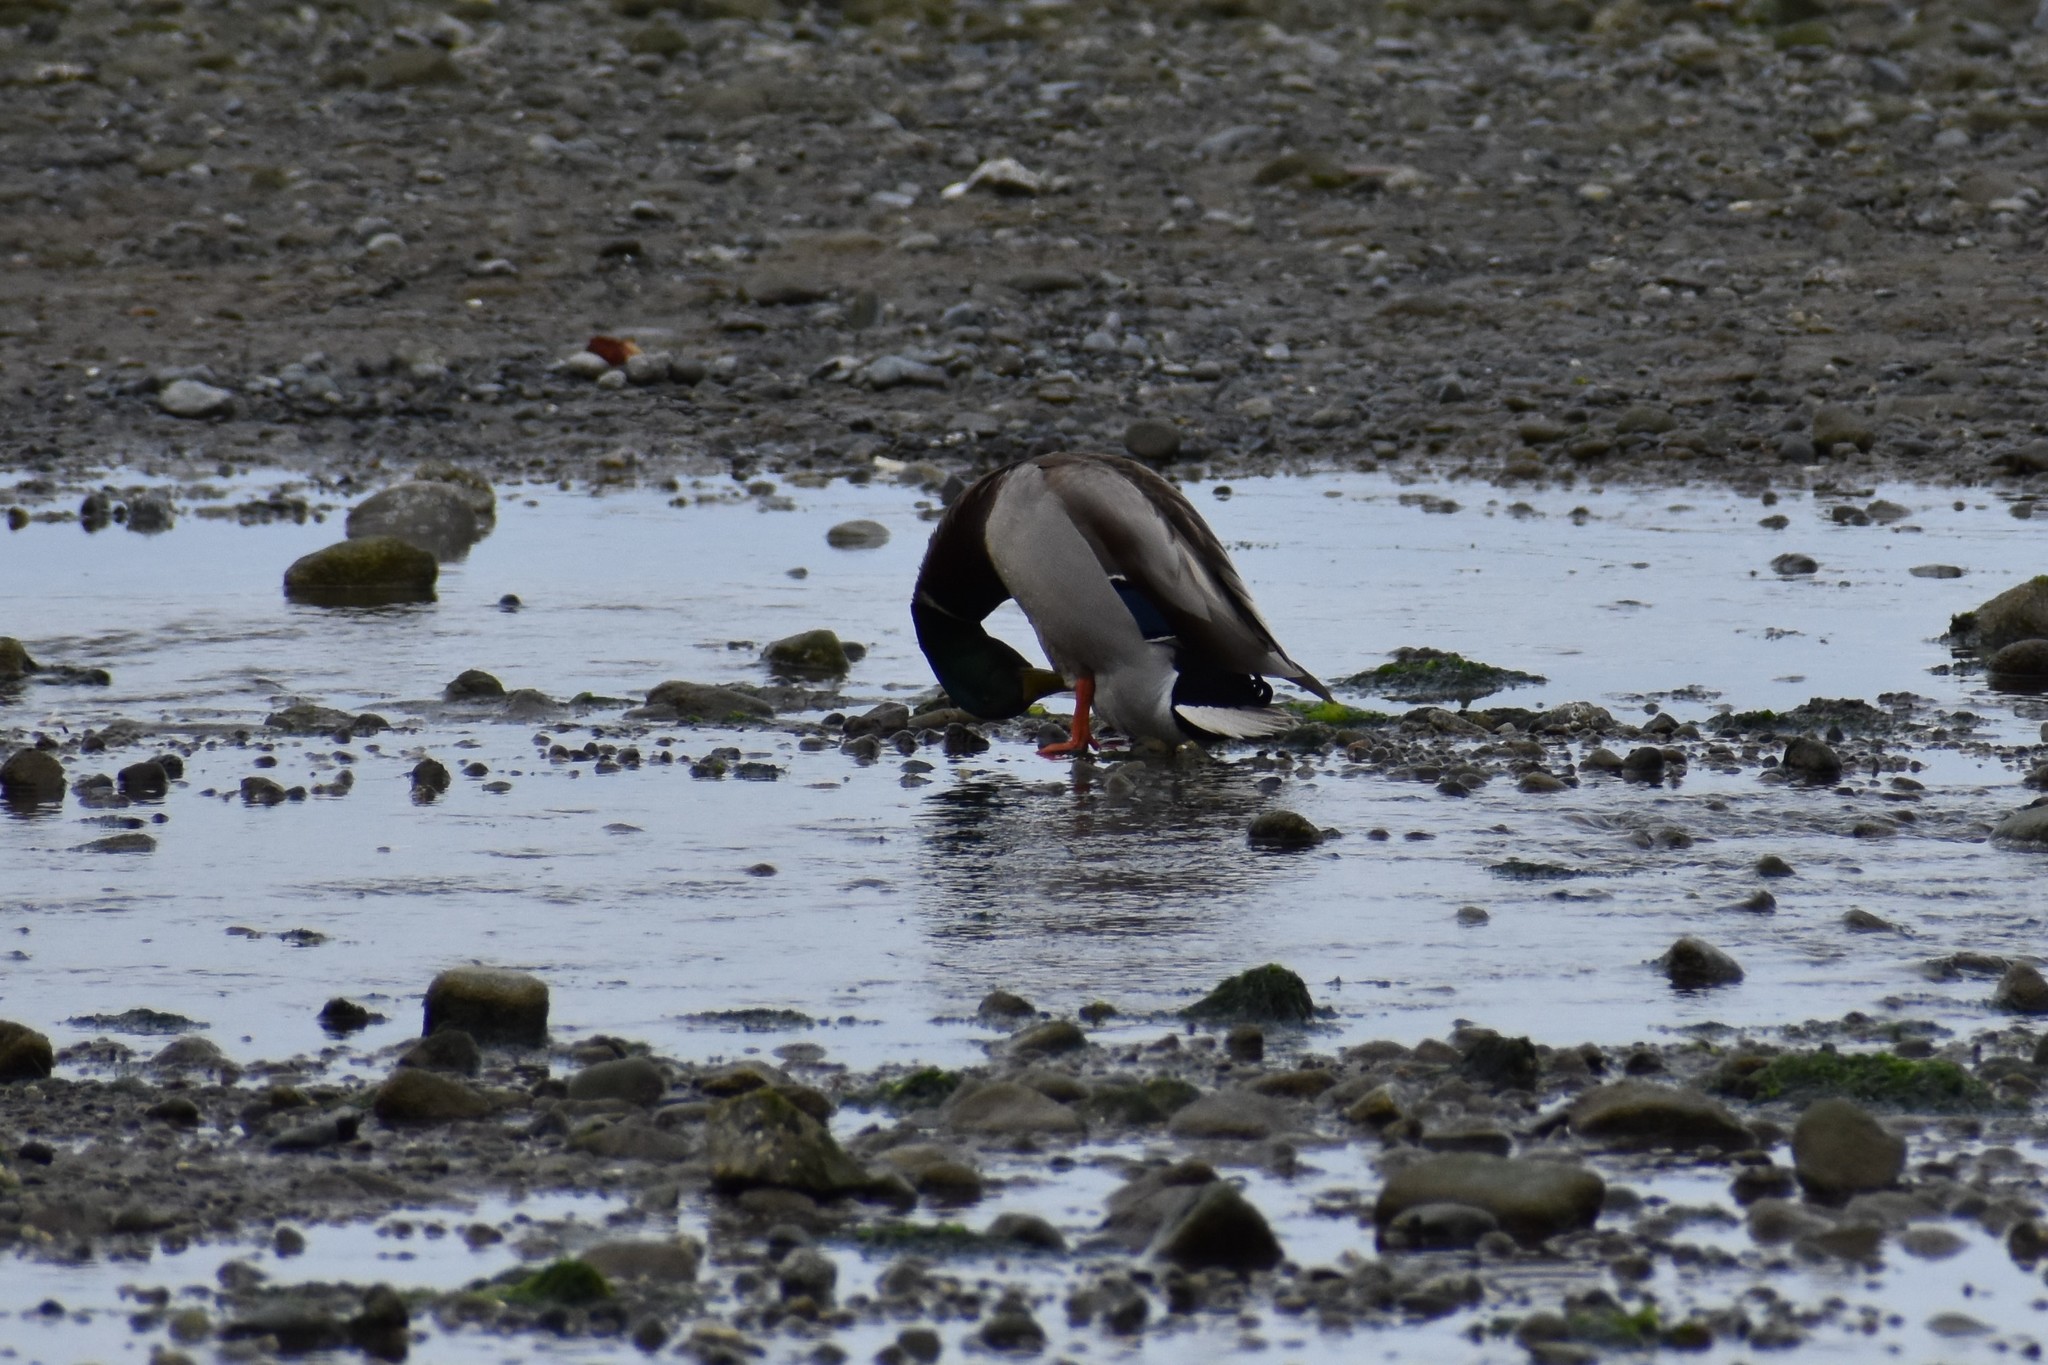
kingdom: Animalia
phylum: Chordata
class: Aves
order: Anseriformes
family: Anatidae
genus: Anas
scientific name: Anas platyrhynchos
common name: Mallard
